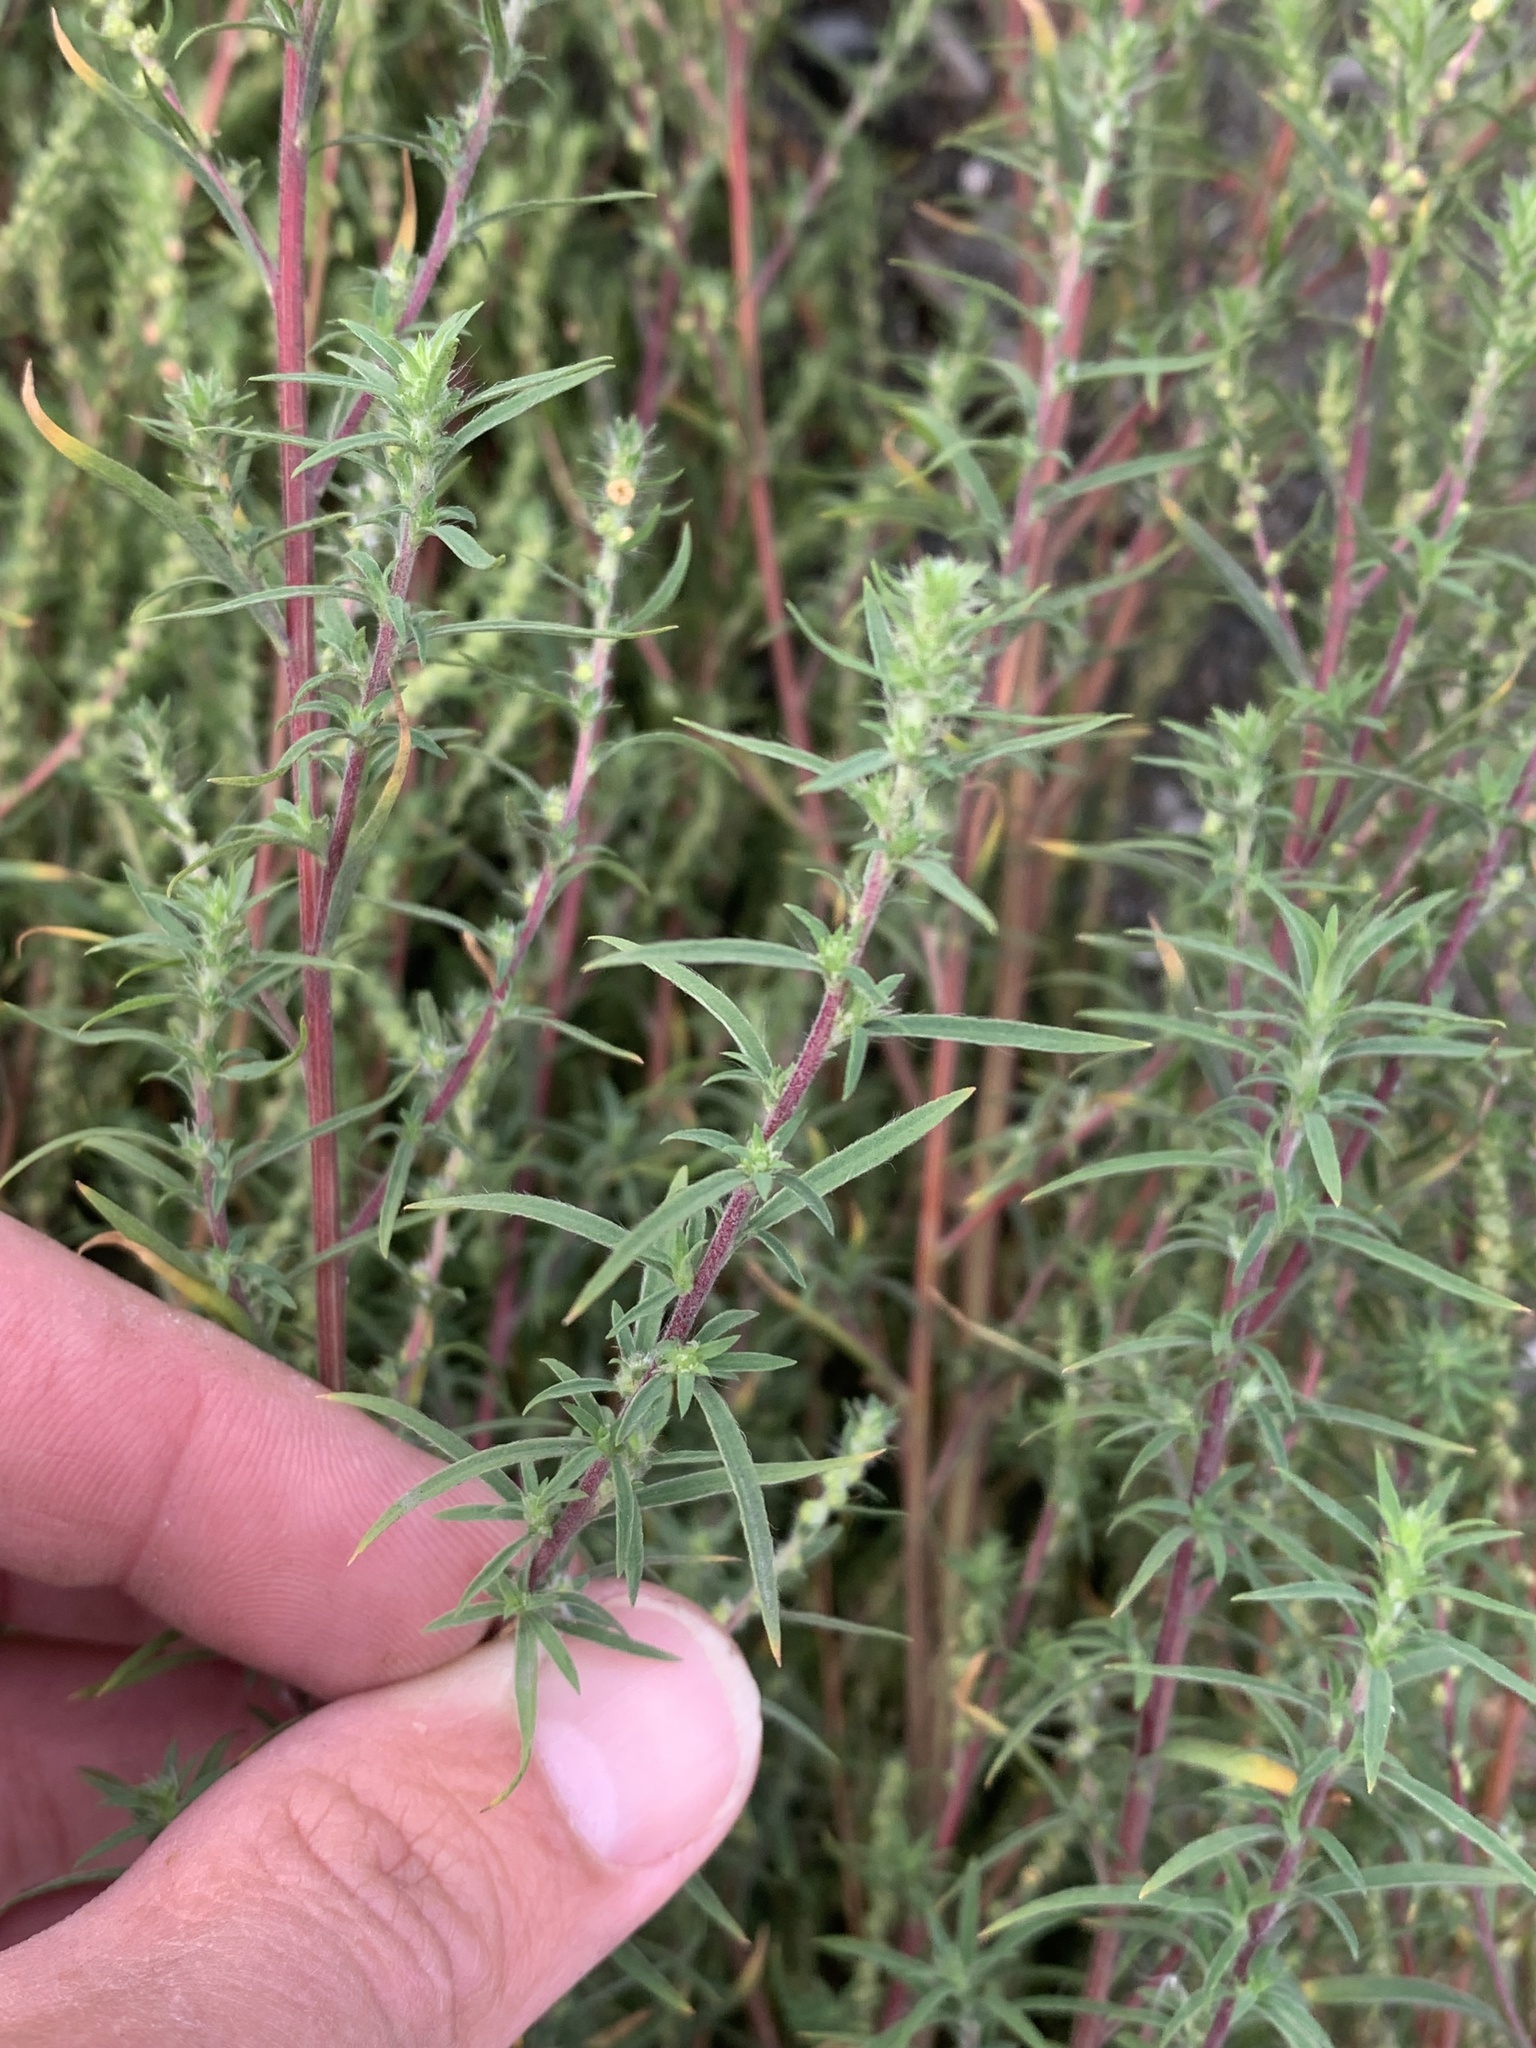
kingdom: Plantae
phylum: Tracheophyta
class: Magnoliopsida
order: Caryophyllales
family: Amaranthaceae
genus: Bassia
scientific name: Bassia scoparia
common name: Belvedere
